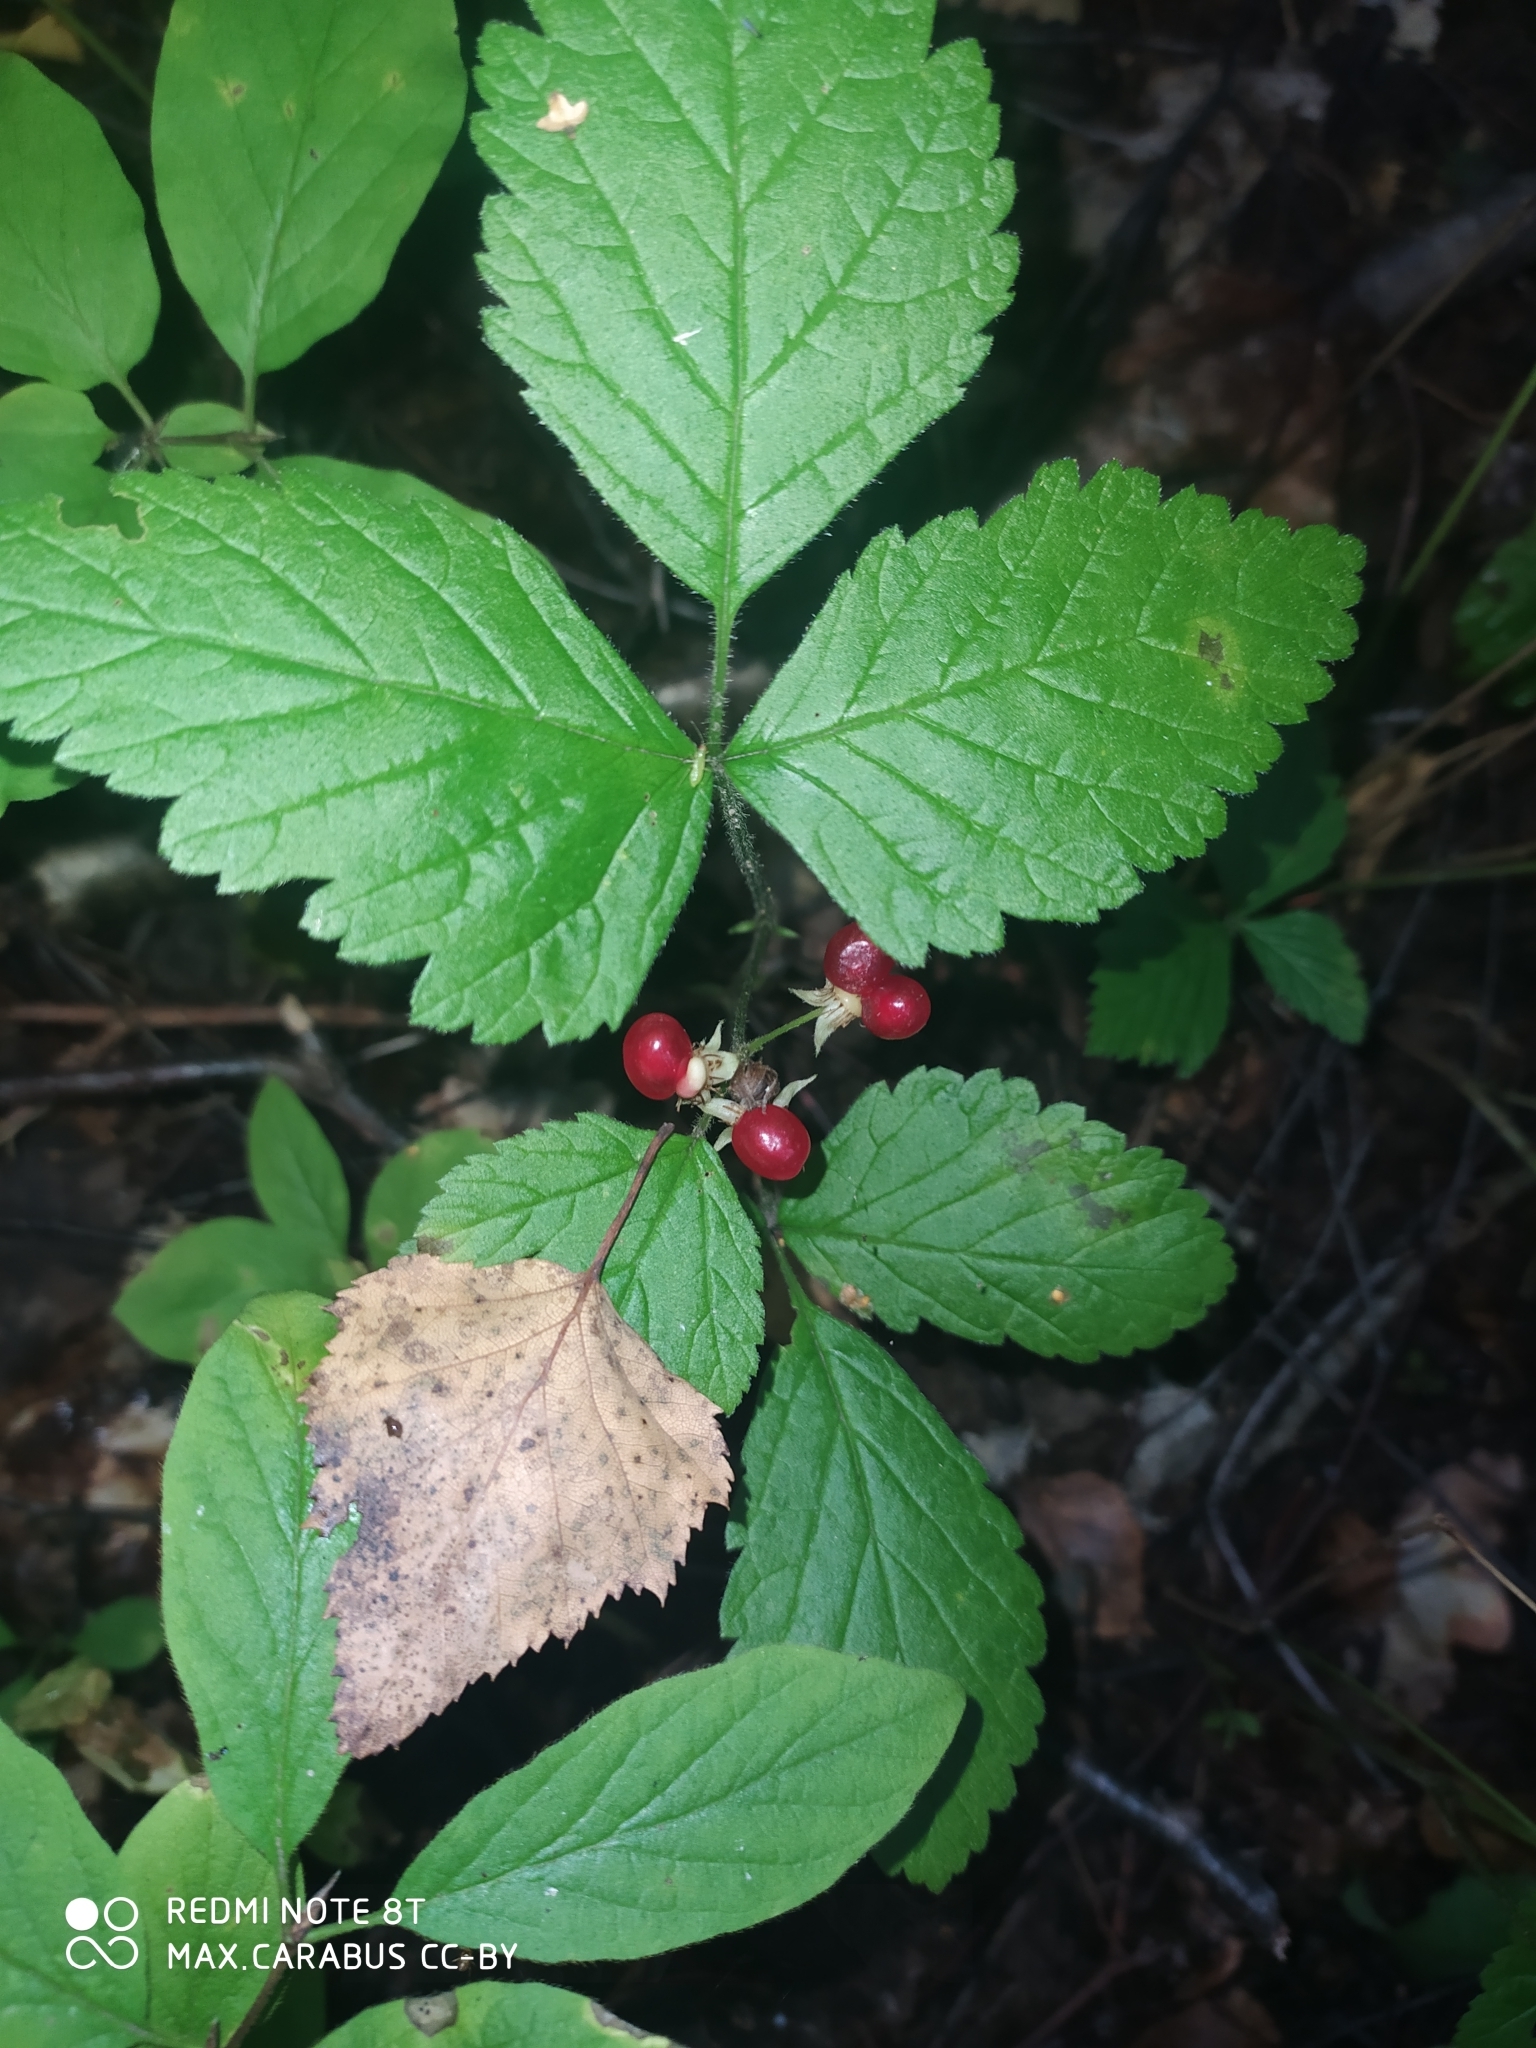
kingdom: Plantae
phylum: Tracheophyta
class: Magnoliopsida
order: Rosales
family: Rosaceae
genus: Rubus
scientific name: Rubus saxatilis
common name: Stone bramble
